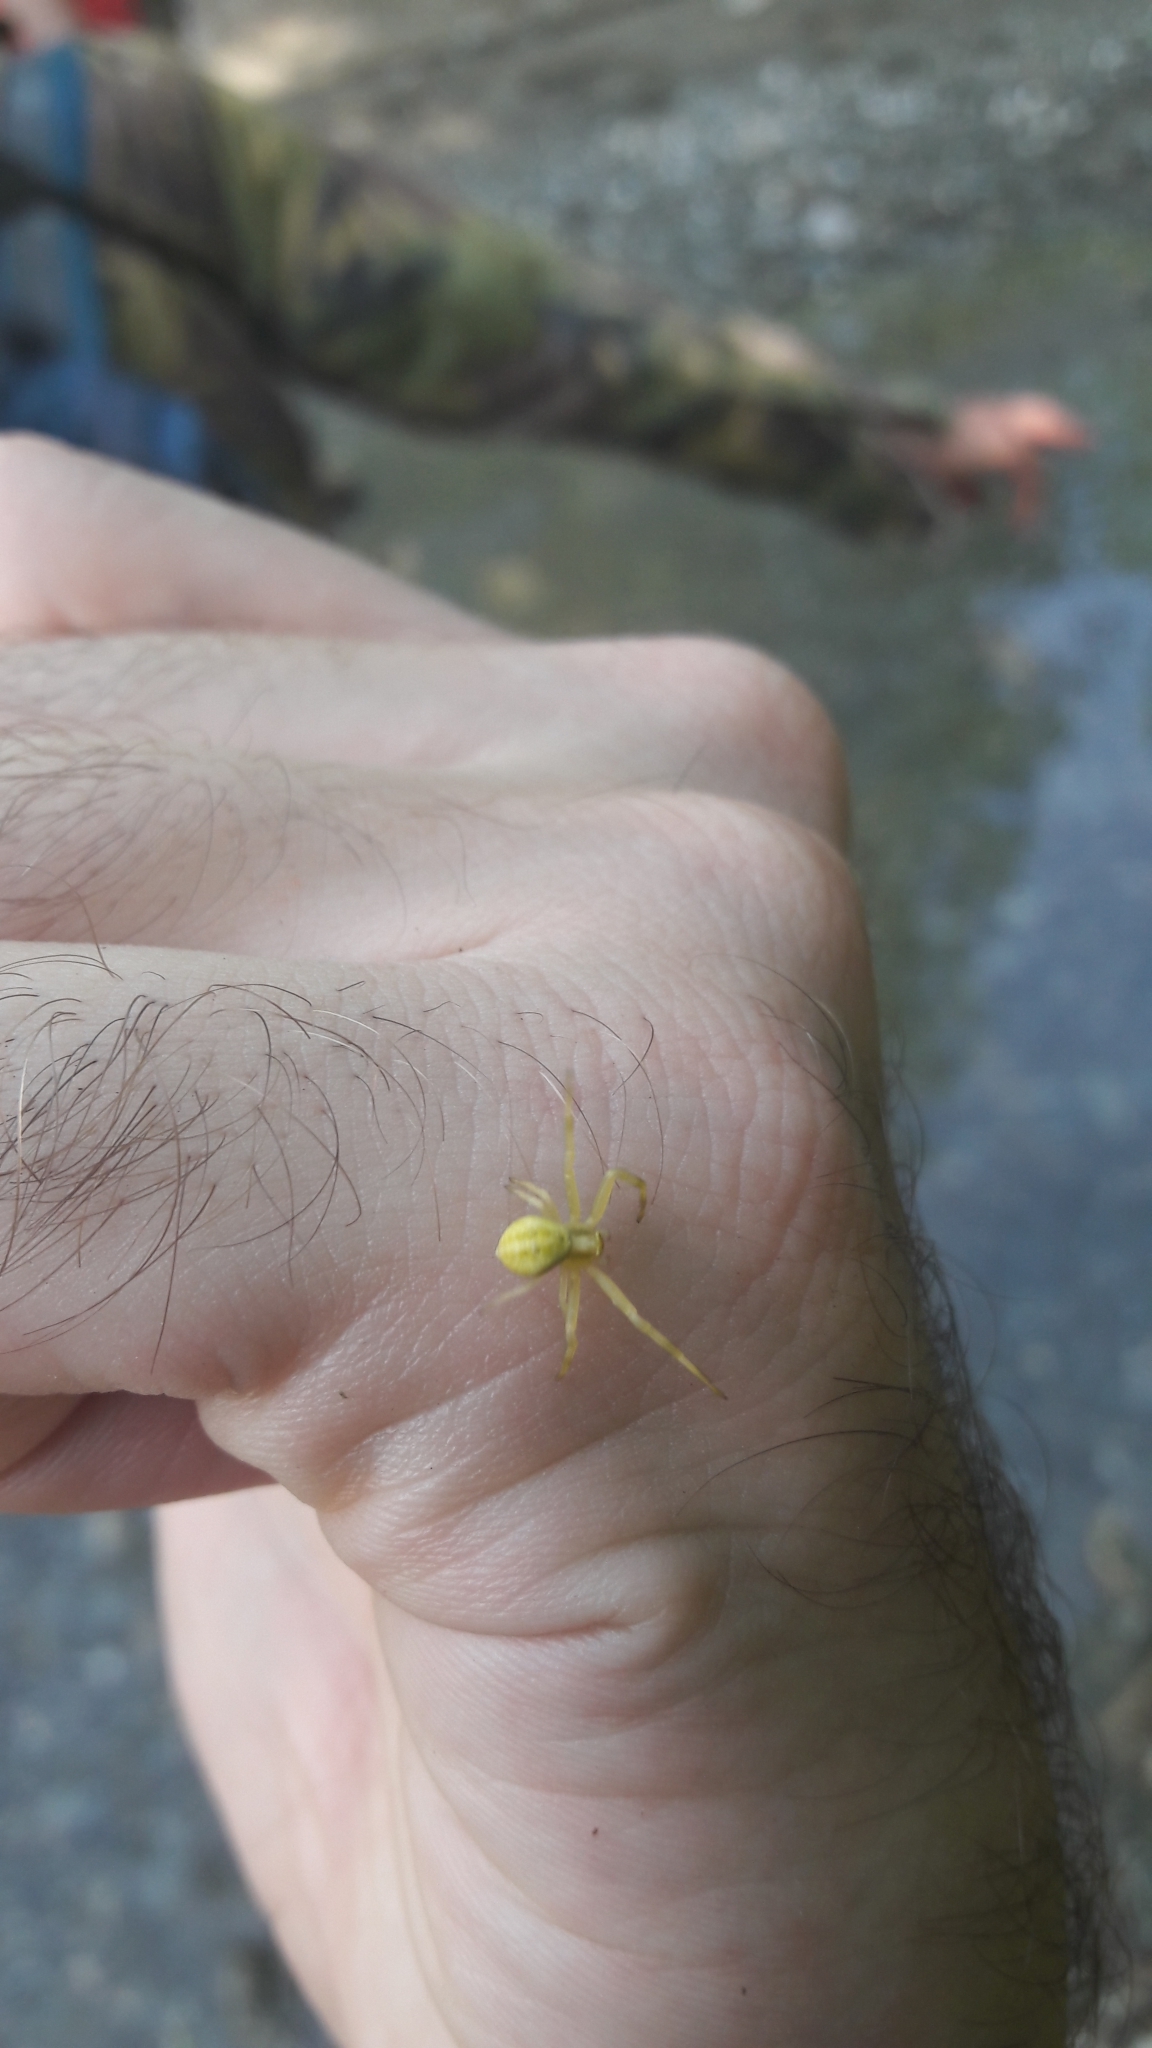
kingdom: Animalia
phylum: Arthropoda
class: Arachnida
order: Araneae
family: Thomisidae
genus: Misumena
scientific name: Misumena vatia
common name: Goldenrod crab spider
